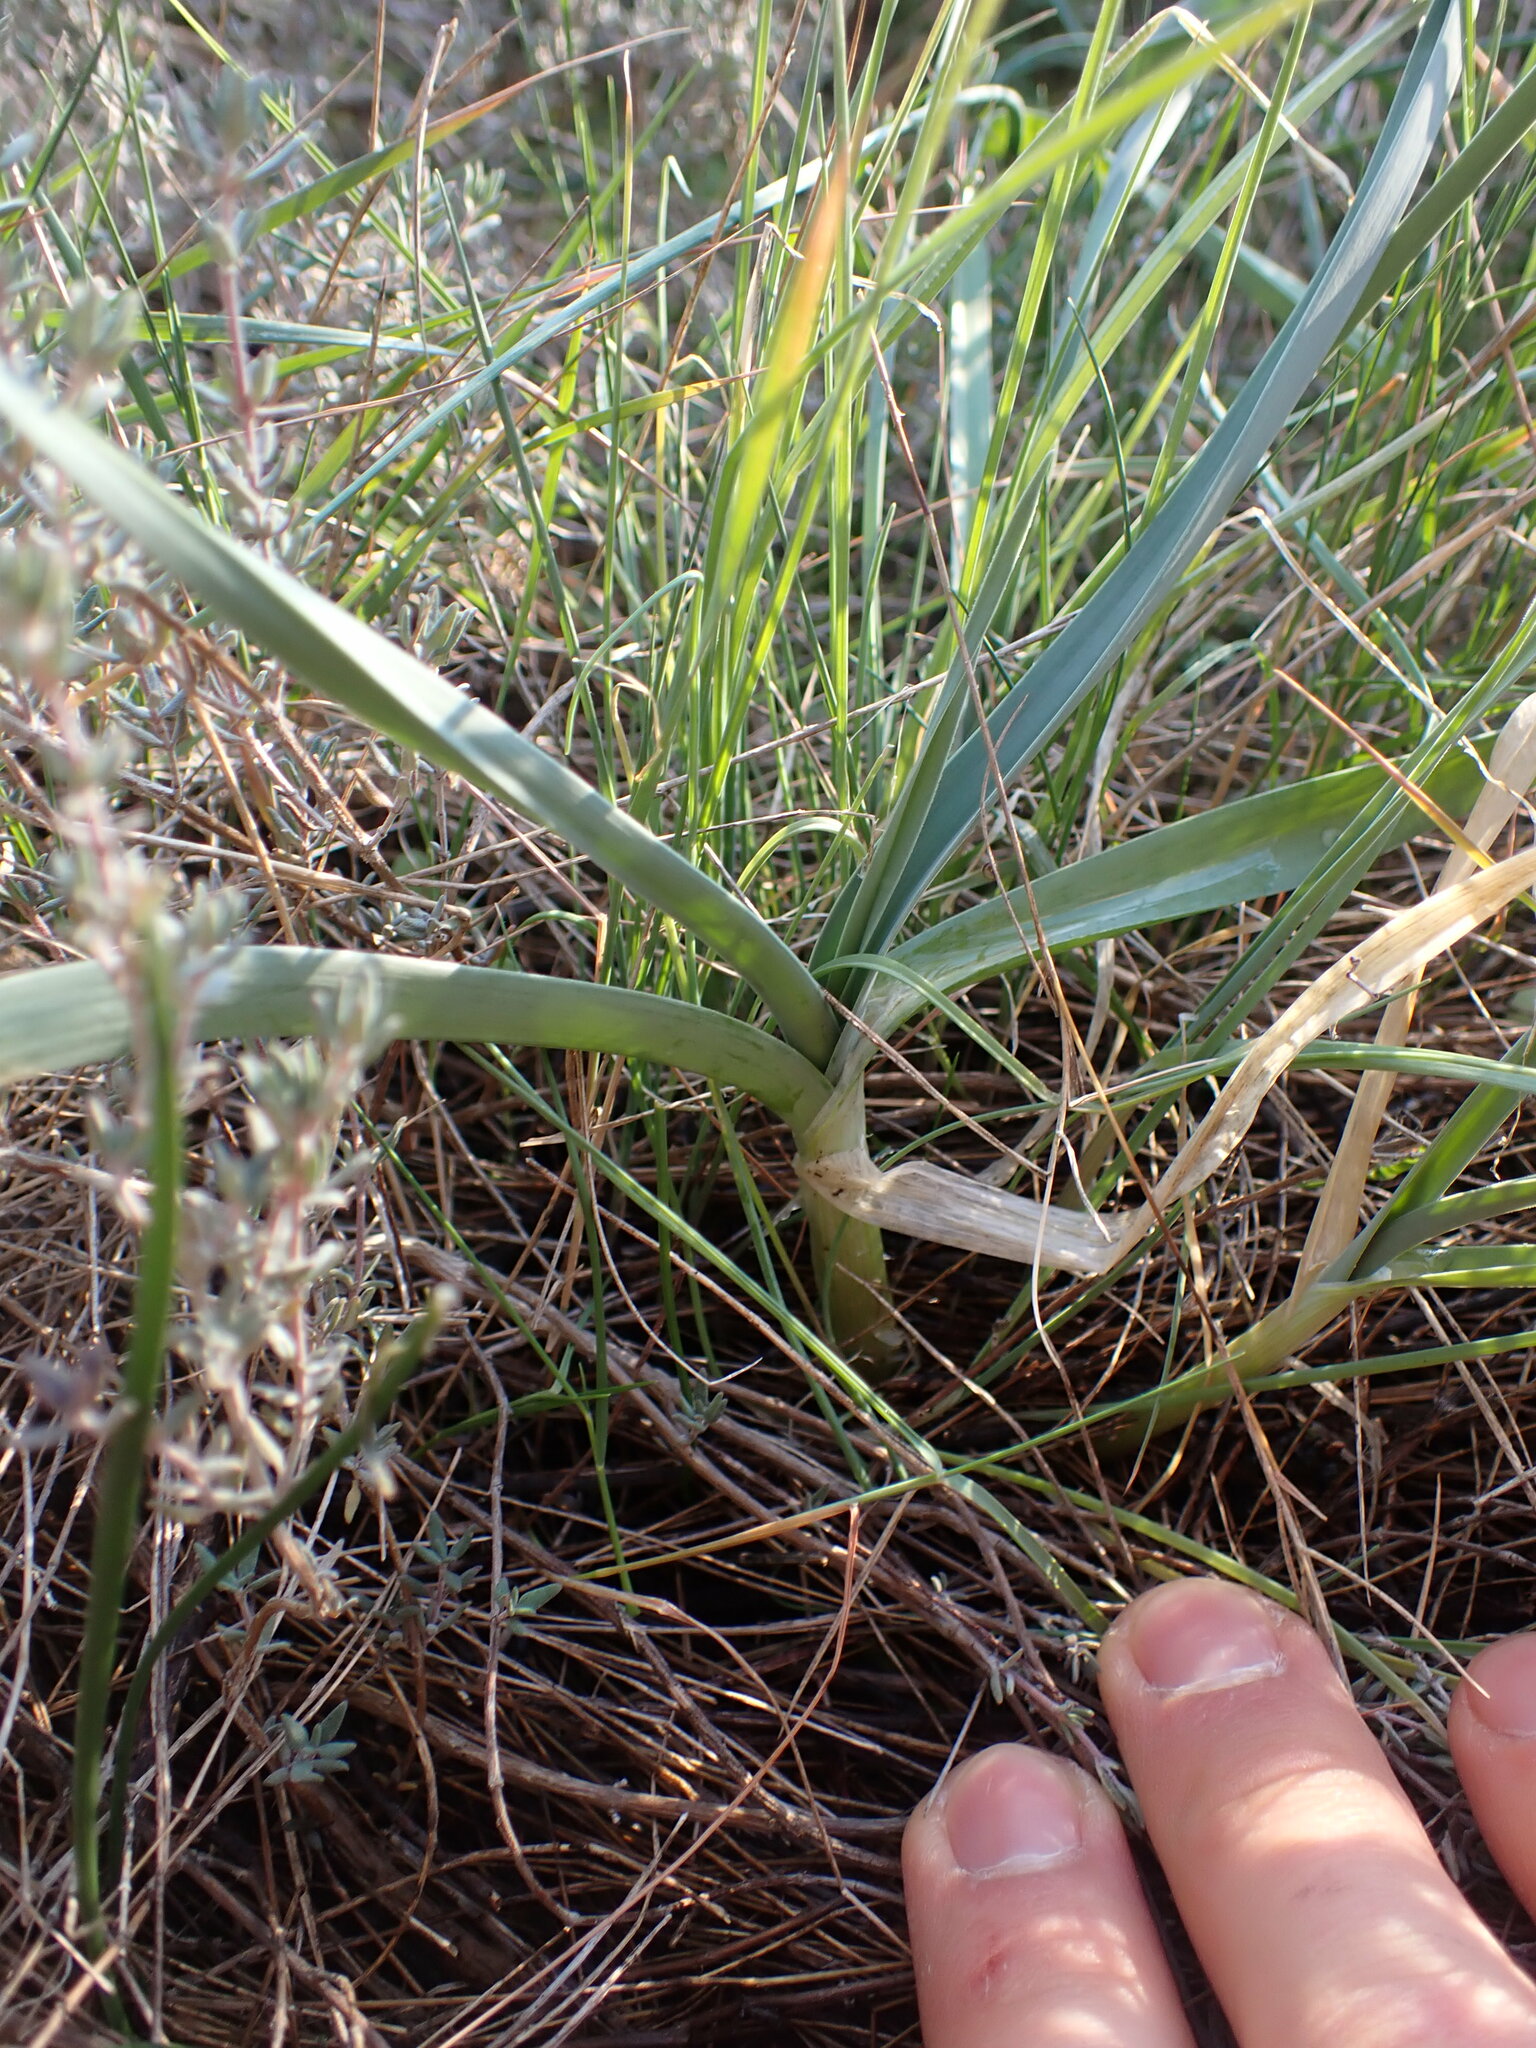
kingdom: Plantae
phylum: Tracheophyta
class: Liliopsida
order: Asparagales
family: Amaryllidaceae
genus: Allium
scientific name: Allium ampeloprasum
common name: Wild leek
